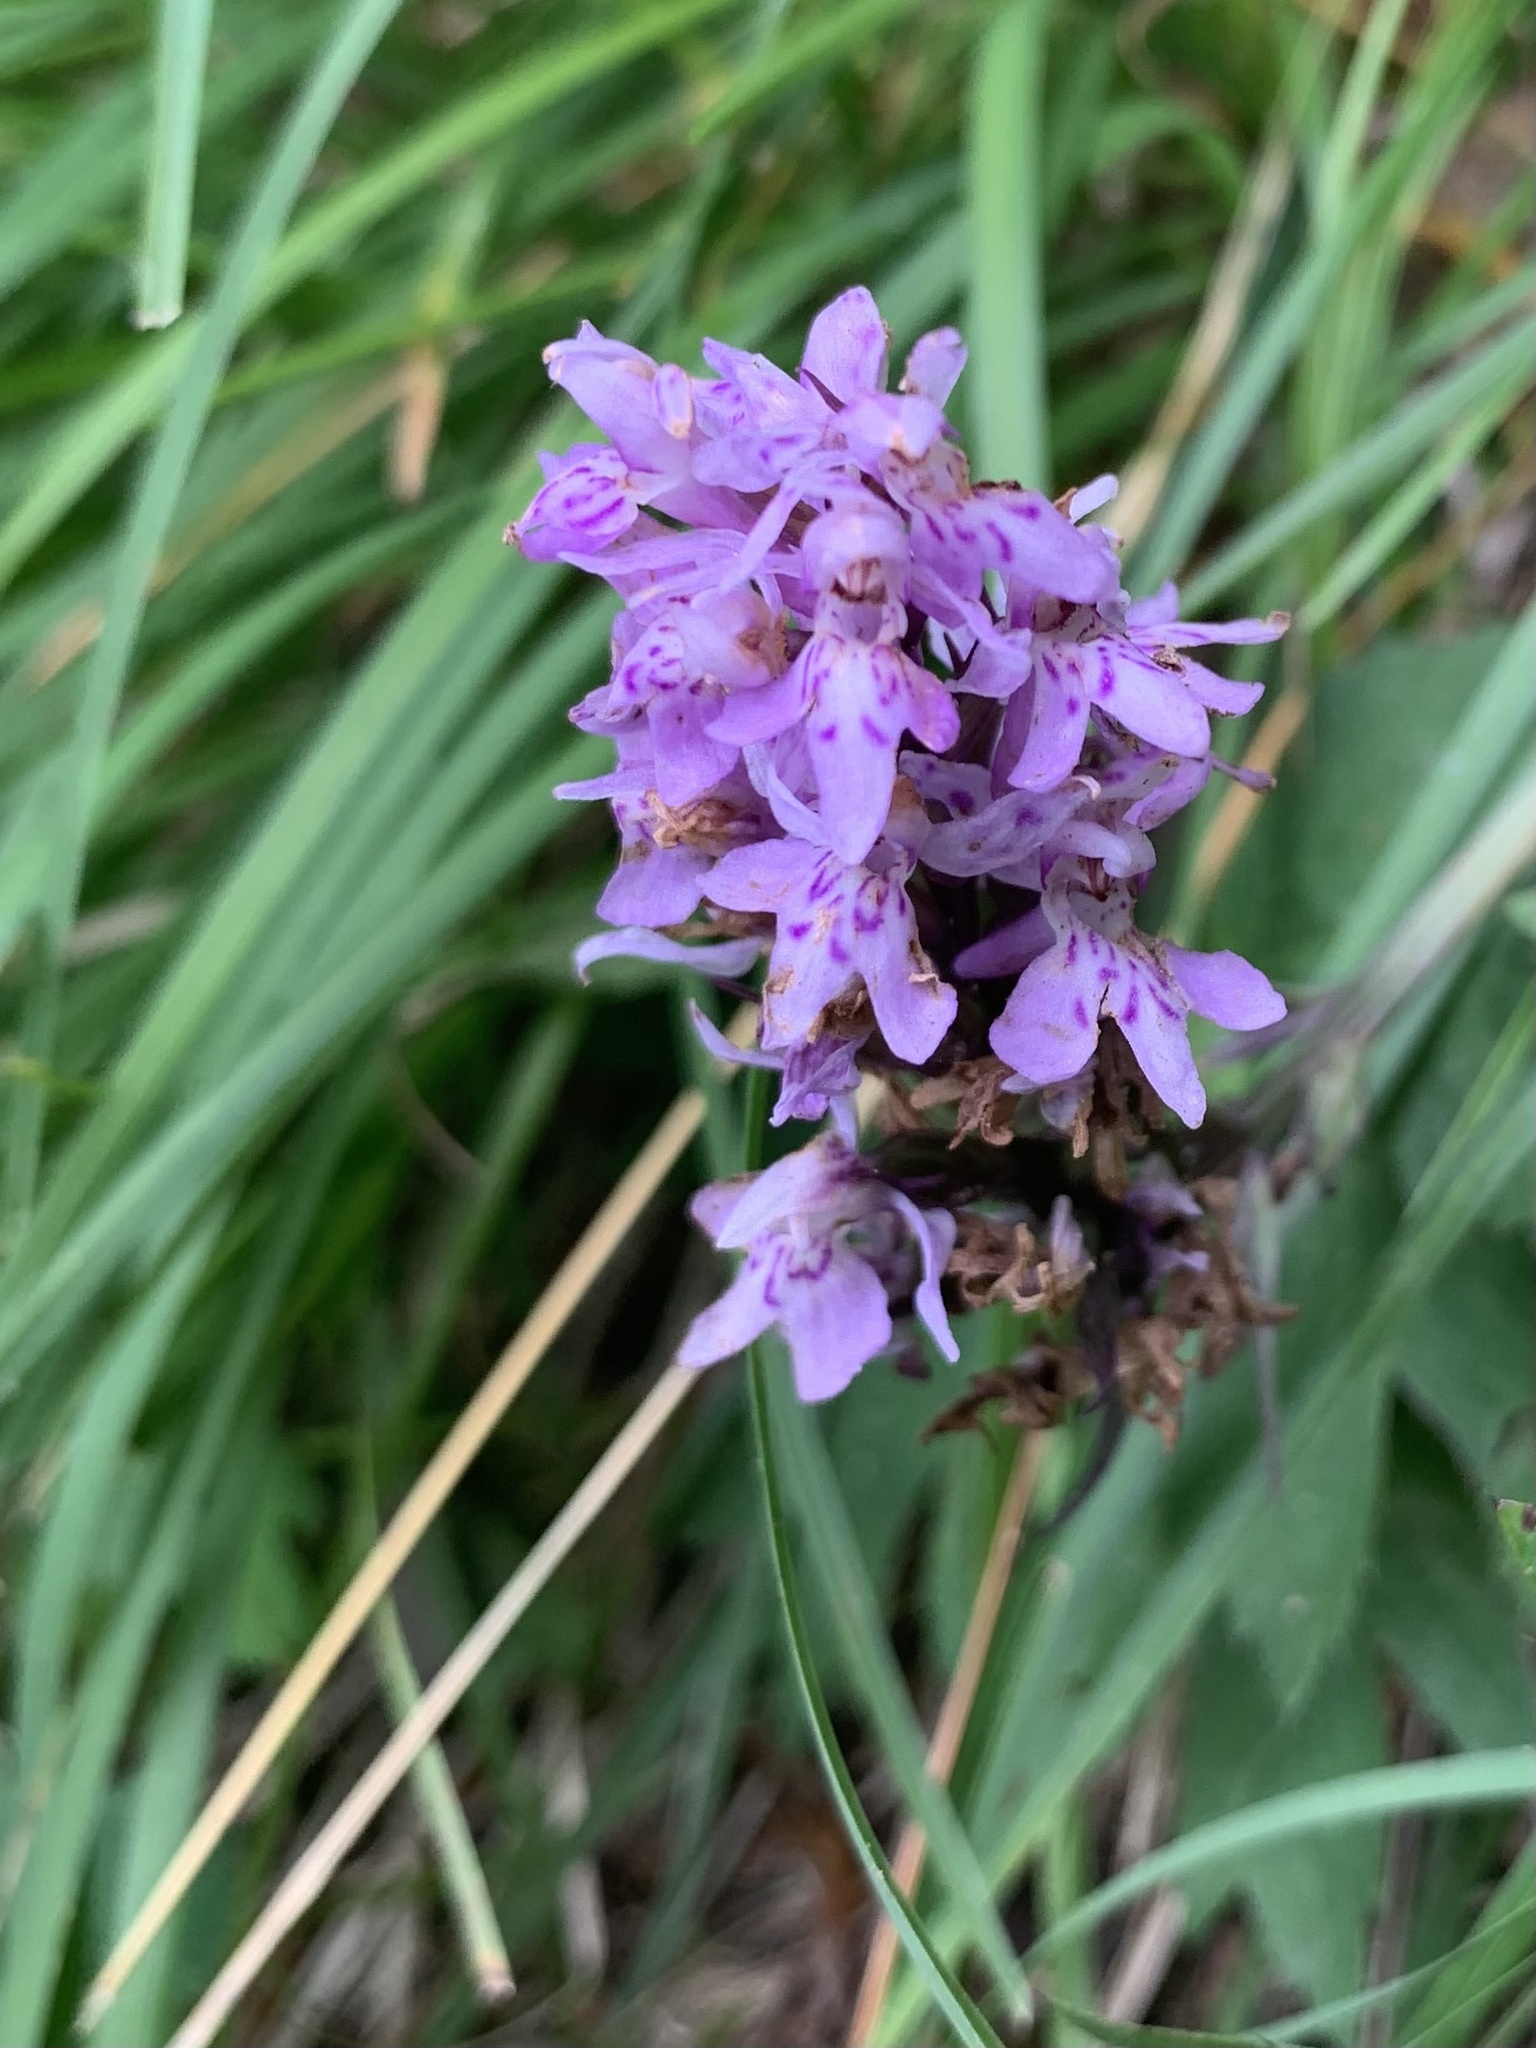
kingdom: Plantae
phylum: Tracheophyta
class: Liliopsida
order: Asparagales
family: Orchidaceae
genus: Dactylorhiza
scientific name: Dactylorhiza maculata
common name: Heath spotted-orchid
